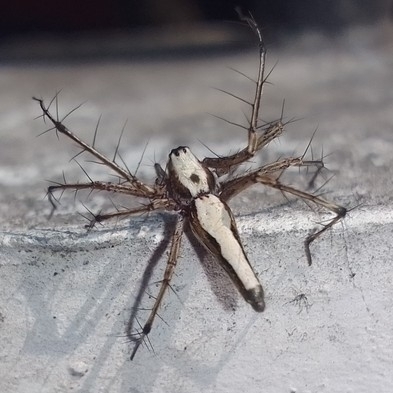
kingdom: Animalia
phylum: Arthropoda
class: Arachnida
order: Araneae
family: Oxyopidae
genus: Oxyopes
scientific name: Oxyopes shweta
